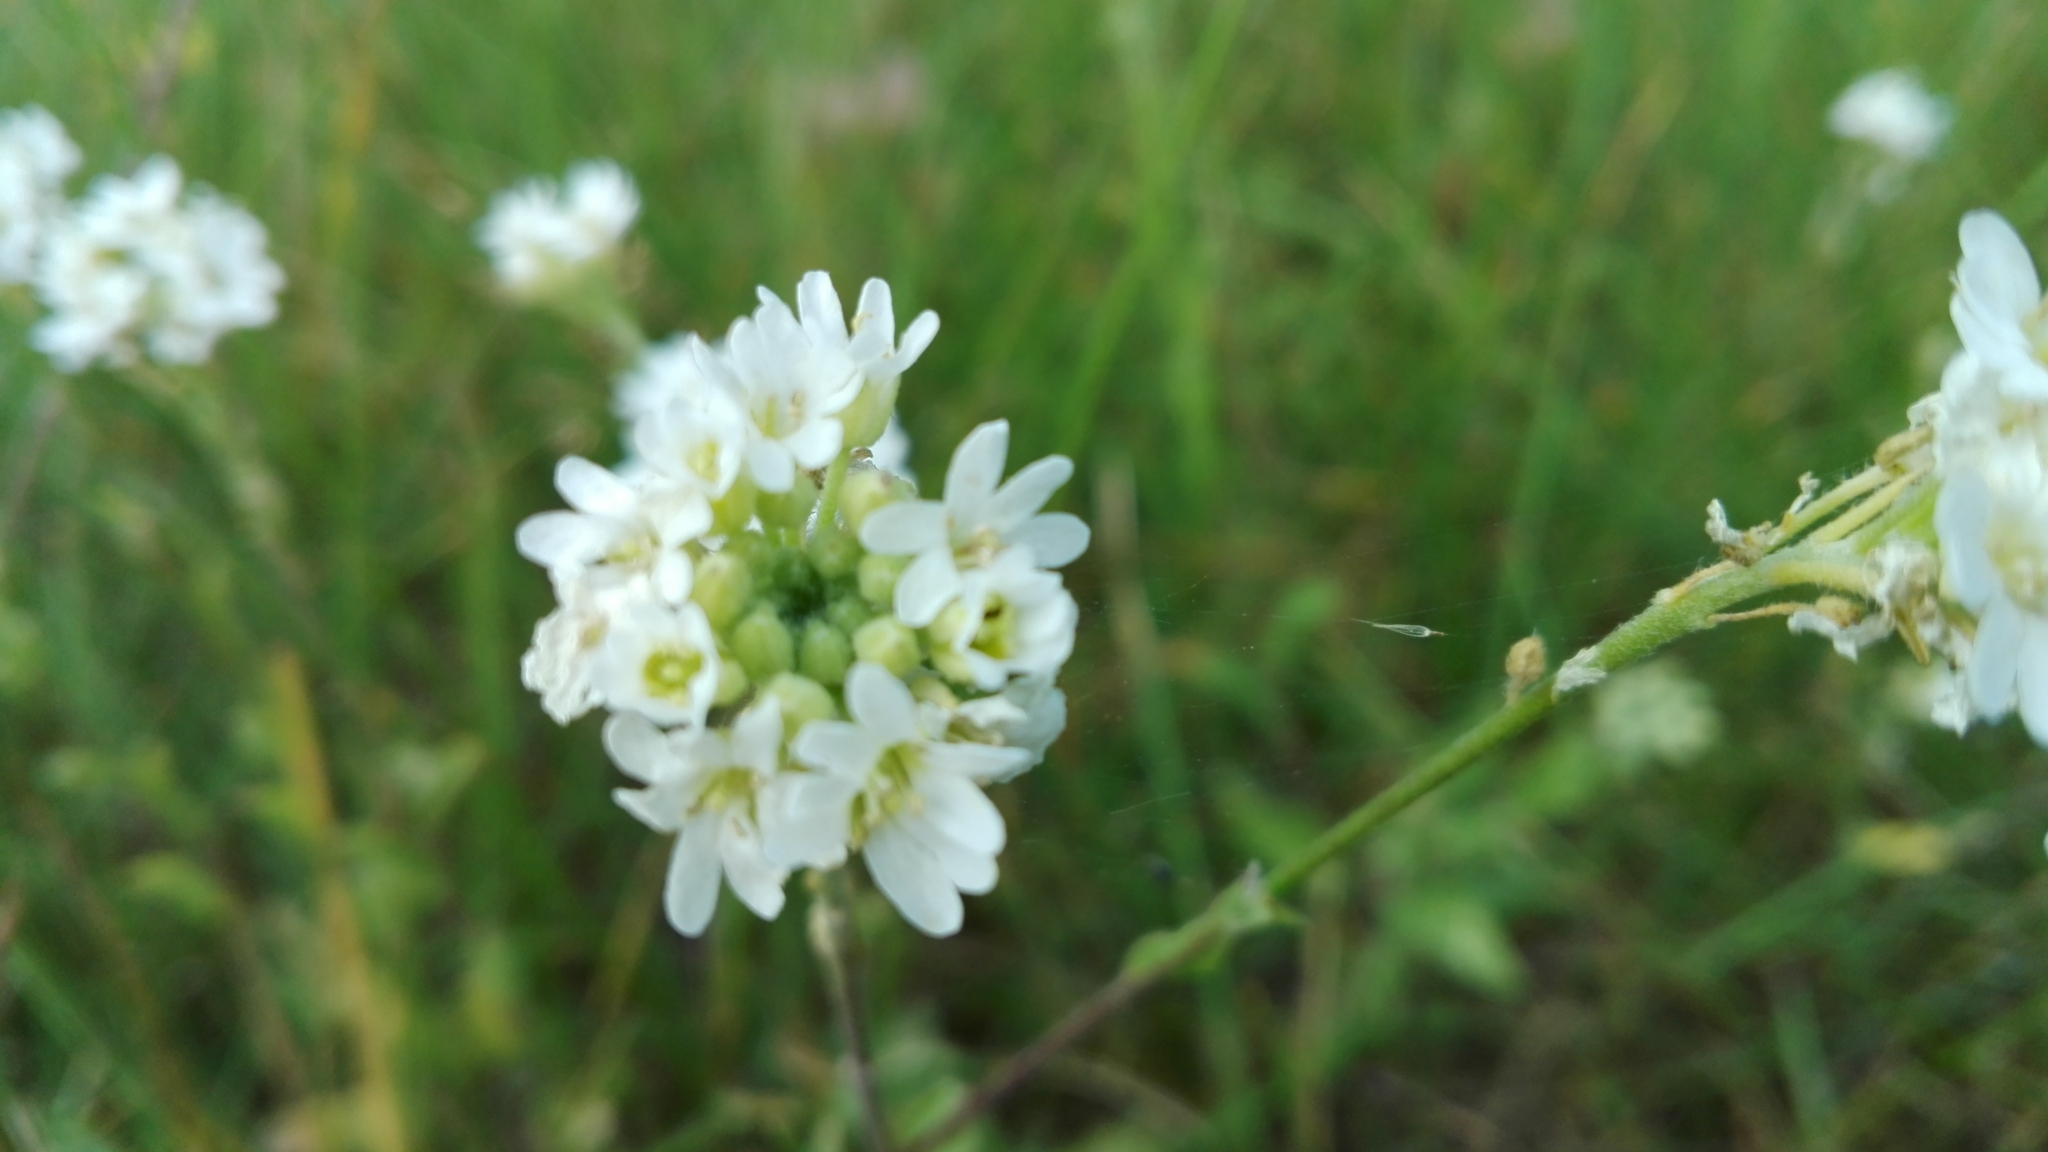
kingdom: Plantae
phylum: Tracheophyta
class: Magnoliopsida
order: Brassicales
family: Brassicaceae
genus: Berteroa
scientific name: Berteroa incana
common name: Hoary alison
